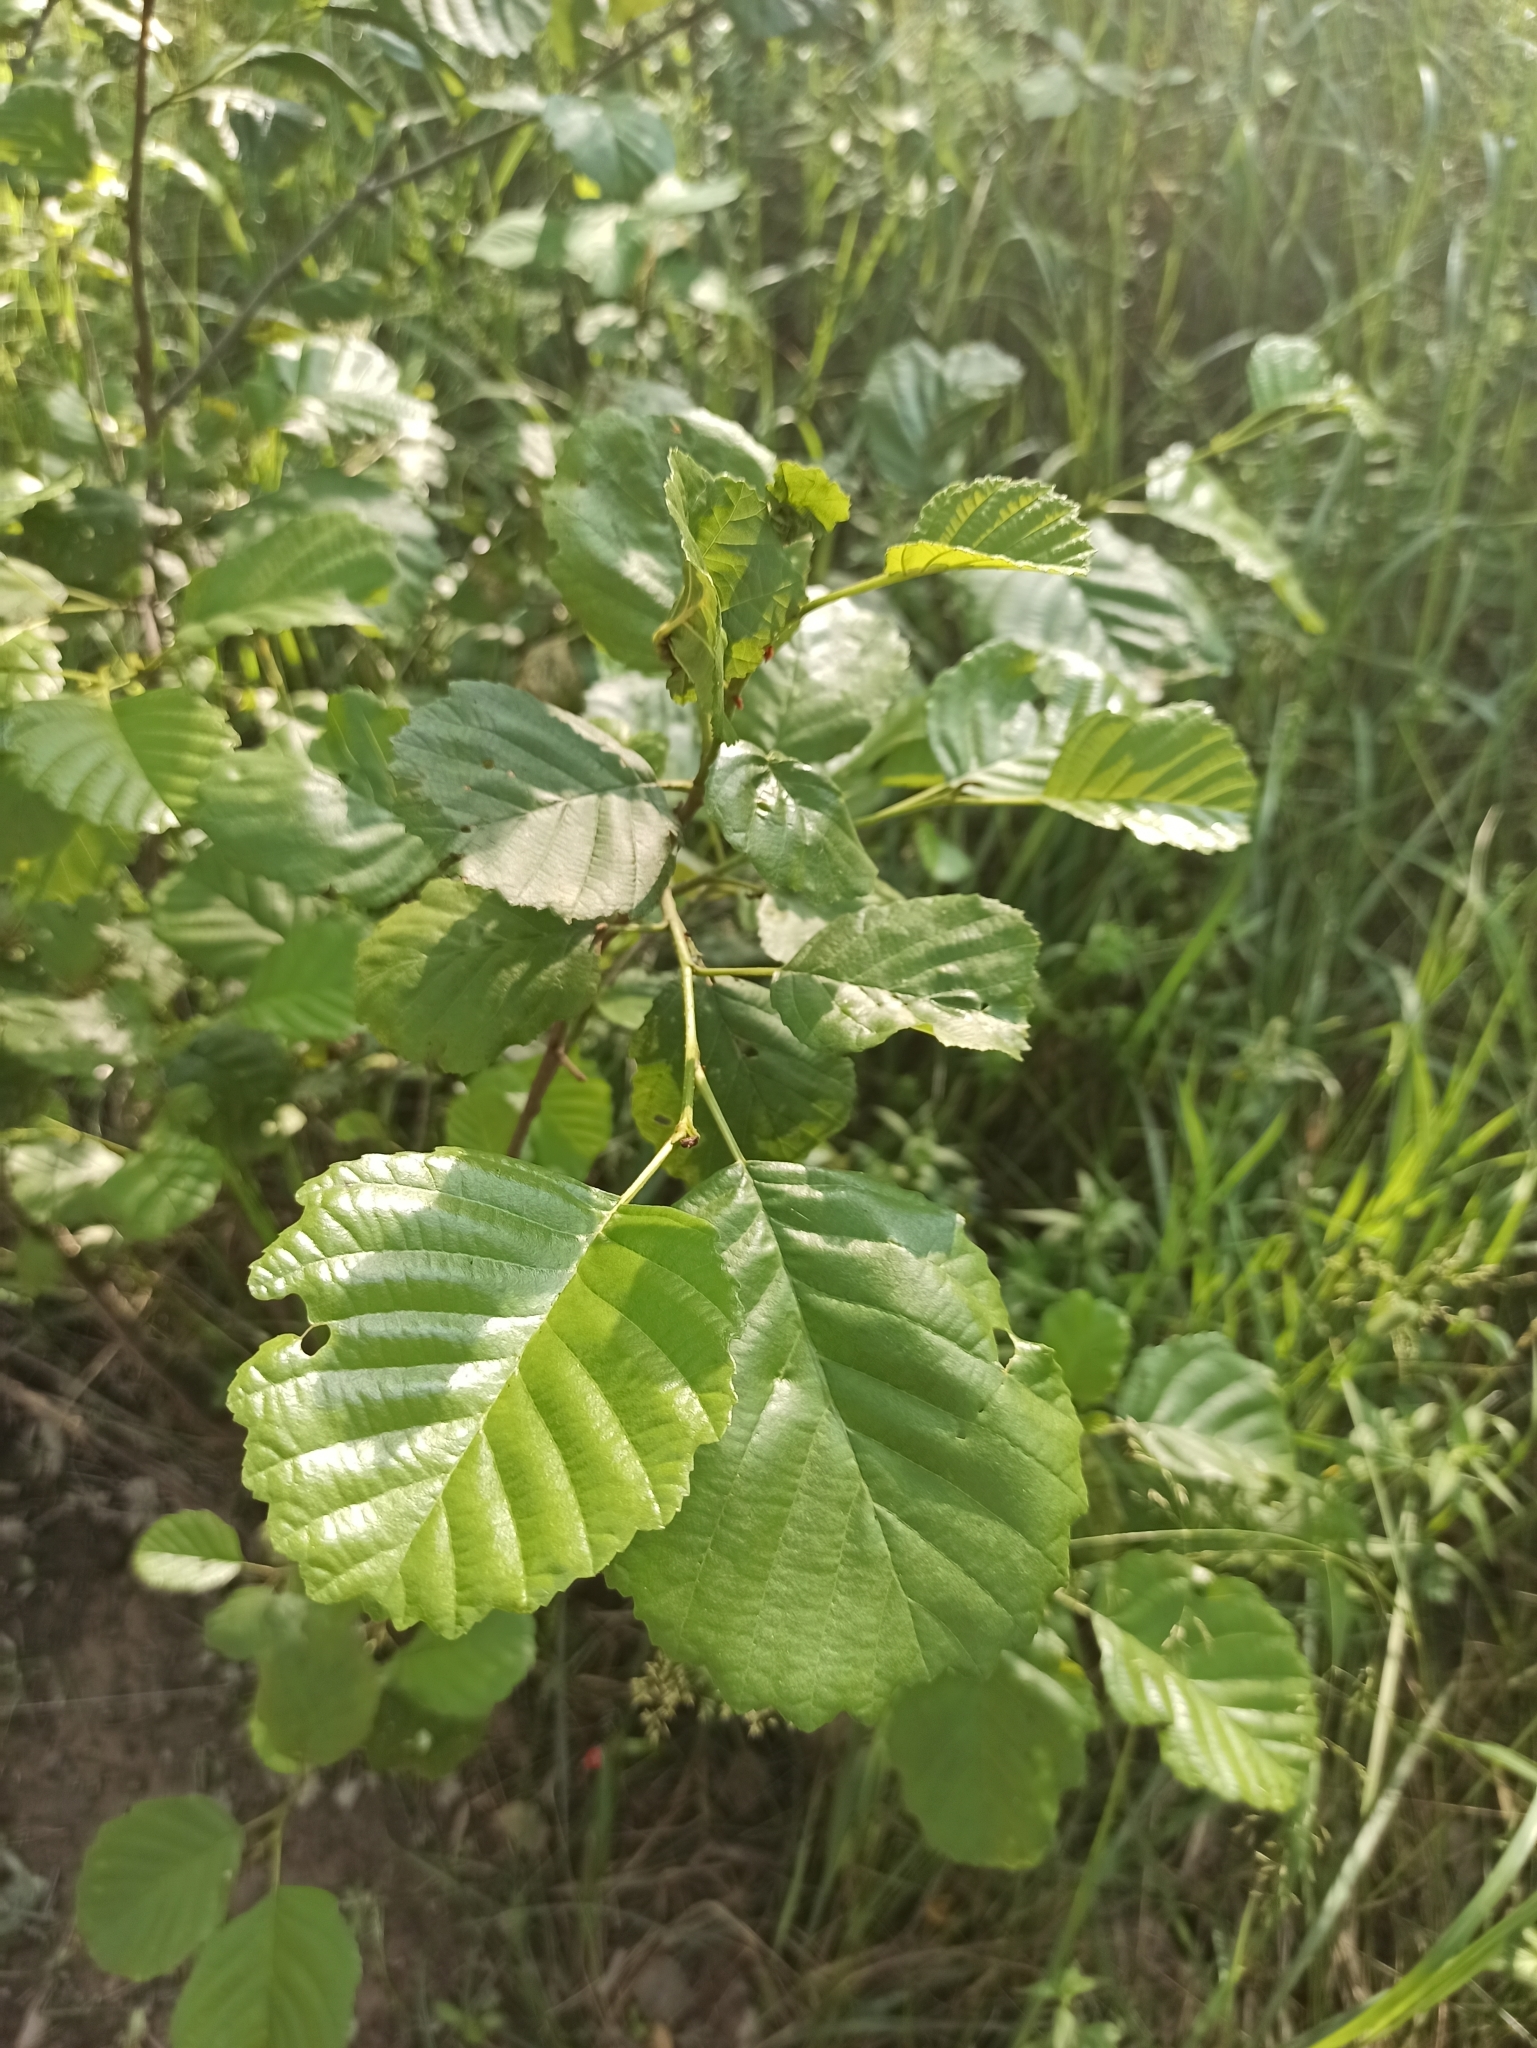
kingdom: Plantae
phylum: Tracheophyta
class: Magnoliopsida
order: Fagales
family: Betulaceae
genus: Alnus
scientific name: Alnus glutinosa
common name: Black alder
